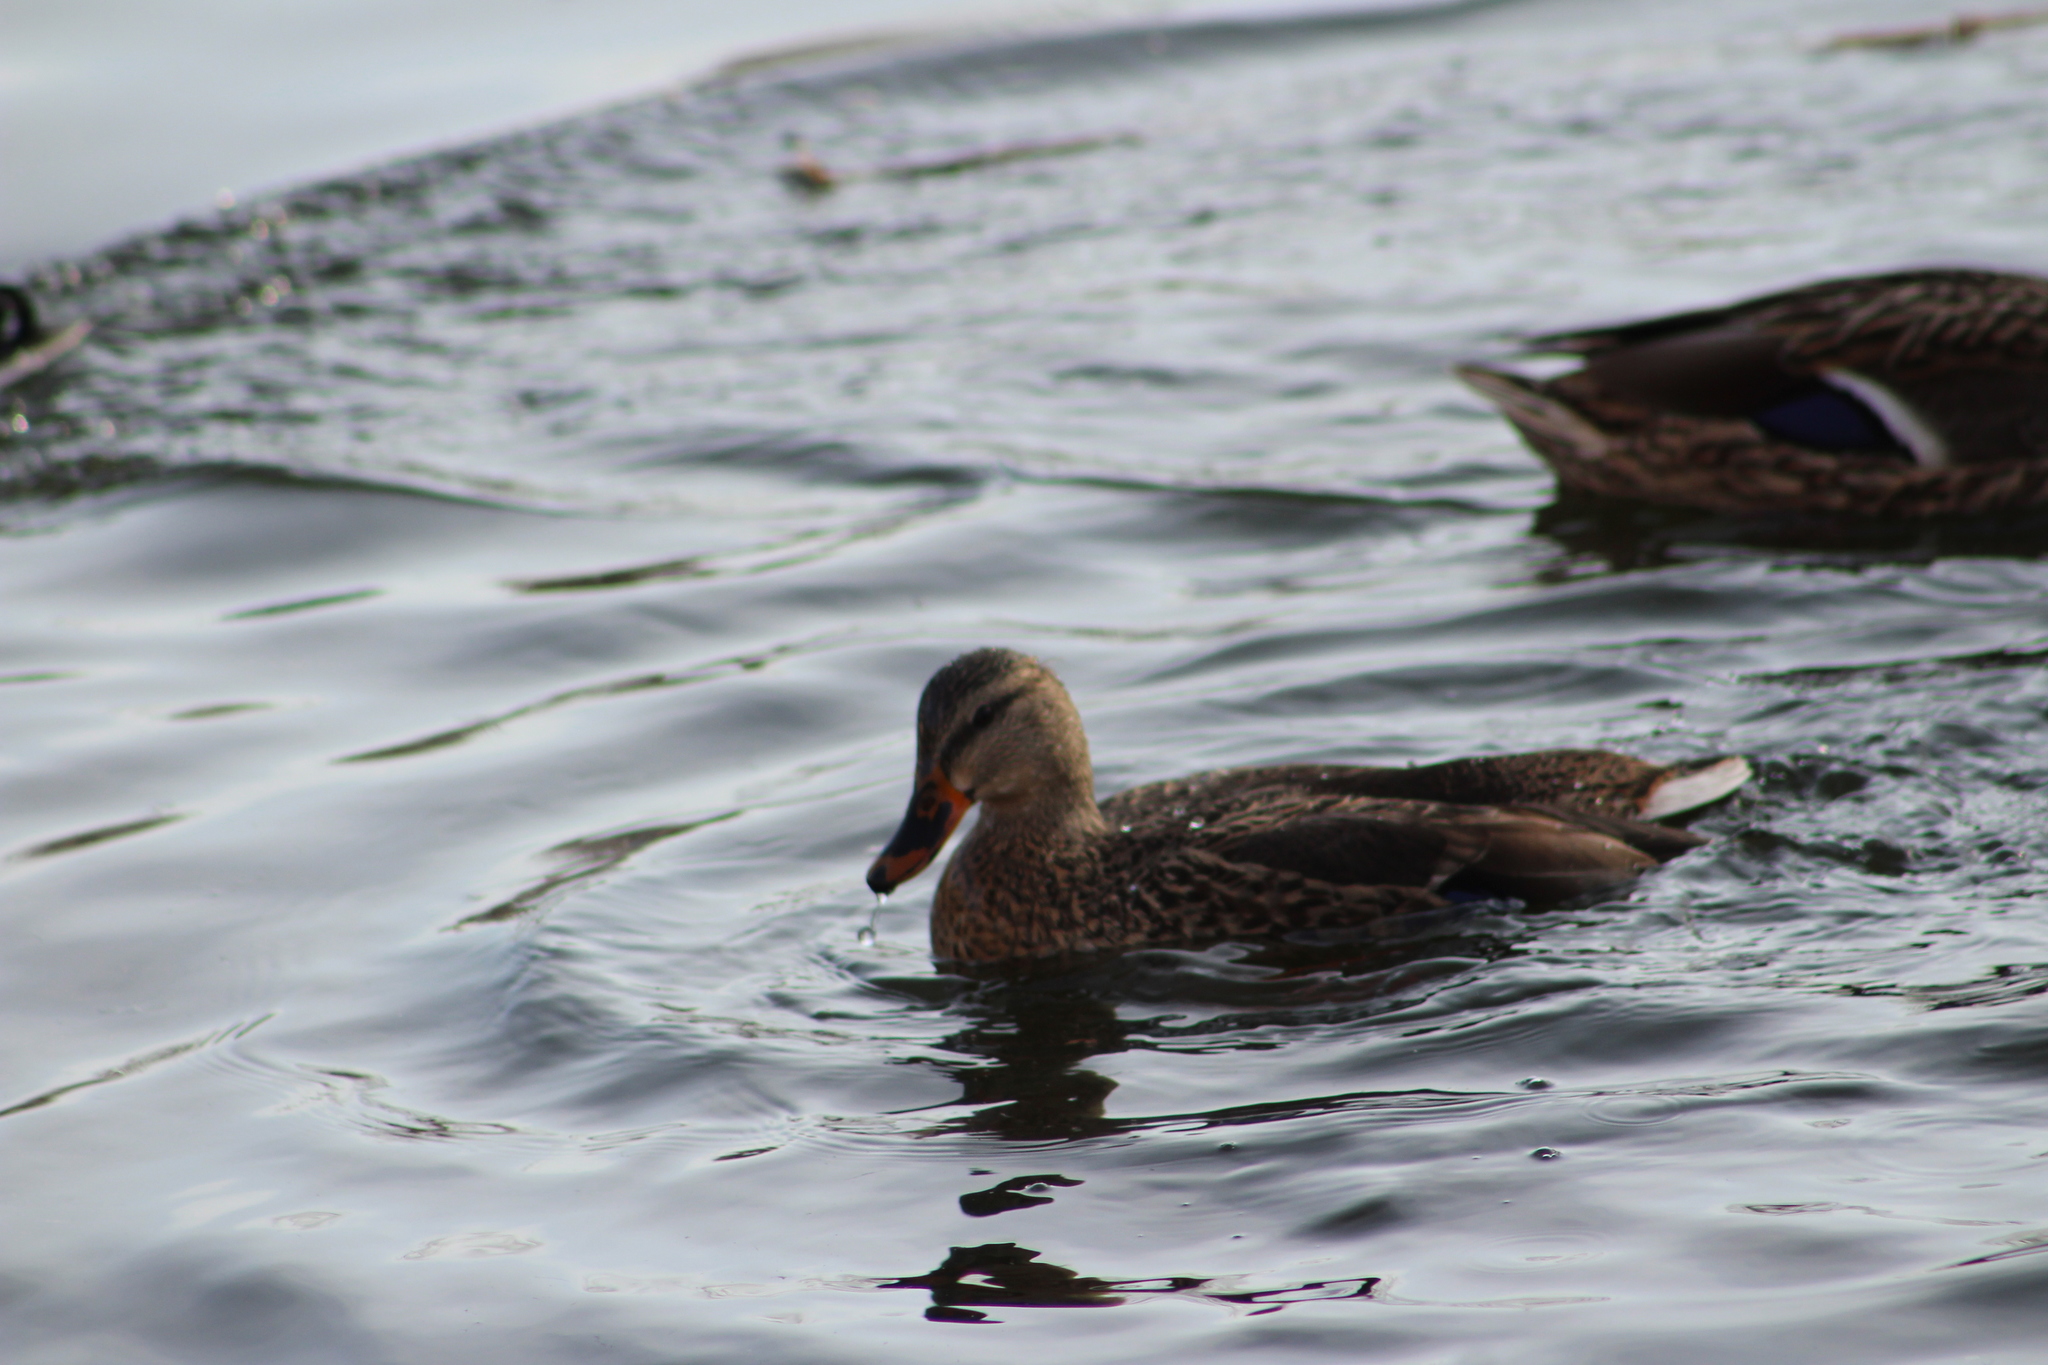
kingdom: Animalia
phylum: Chordata
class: Aves
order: Anseriformes
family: Anatidae
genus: Anas
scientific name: Anas platyrhynchos
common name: Mallard
